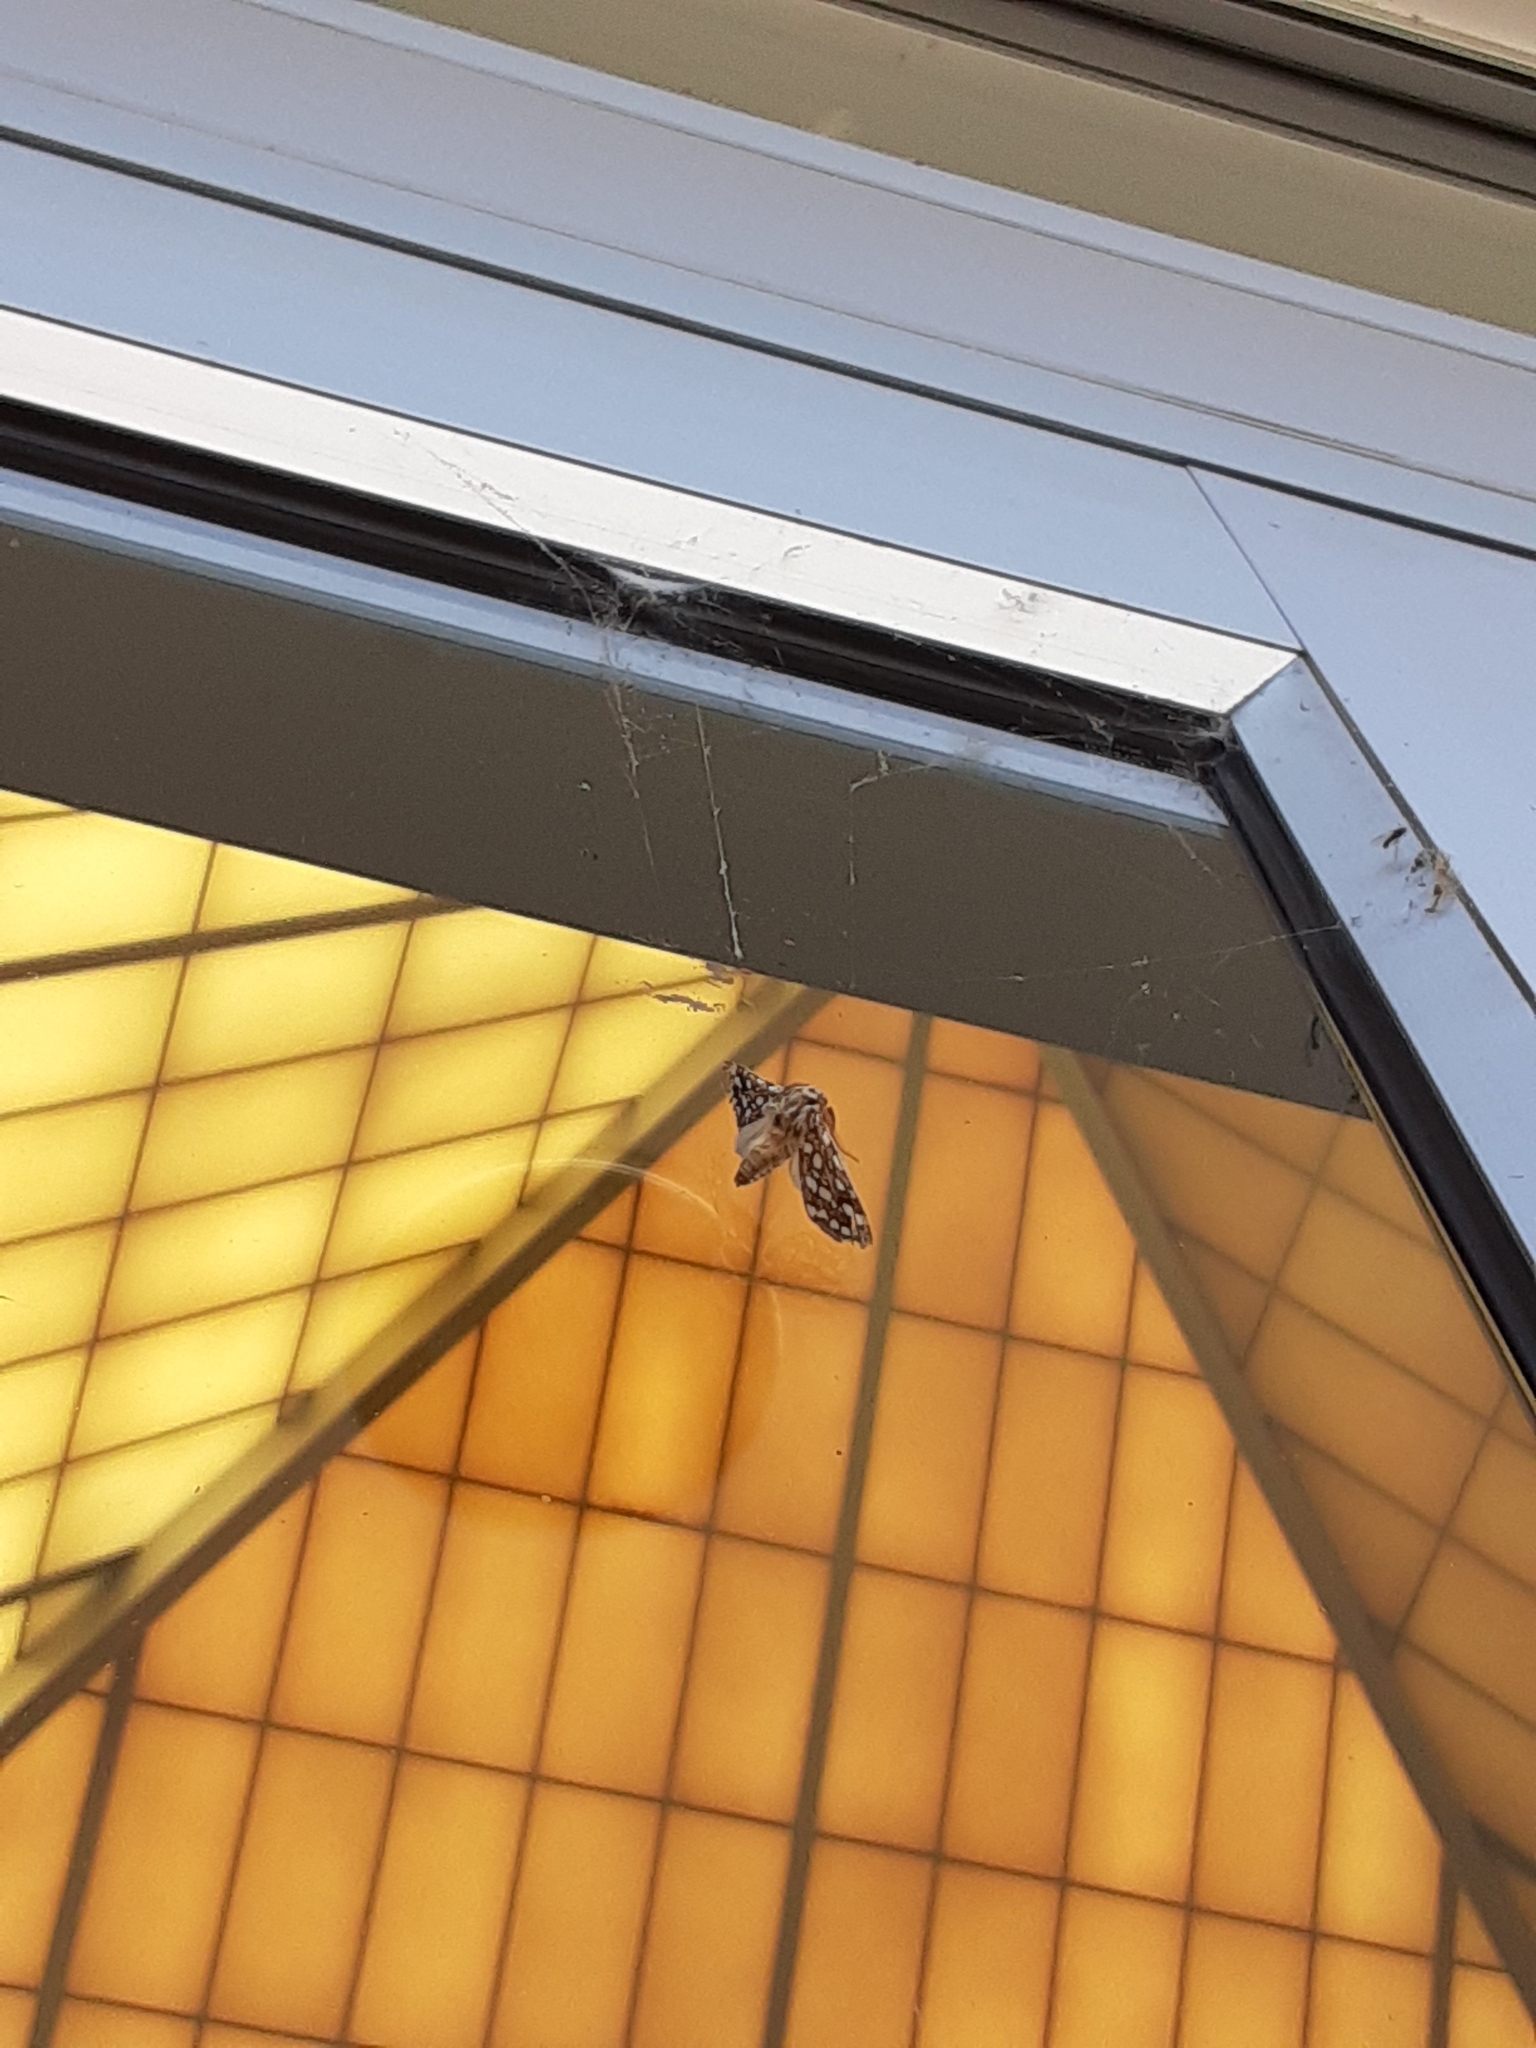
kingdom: Animalia
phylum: Arthropoda
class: Insecta
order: Lepidoptera
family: Erebidae
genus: Lophocampa
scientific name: Lophocampa argentata
